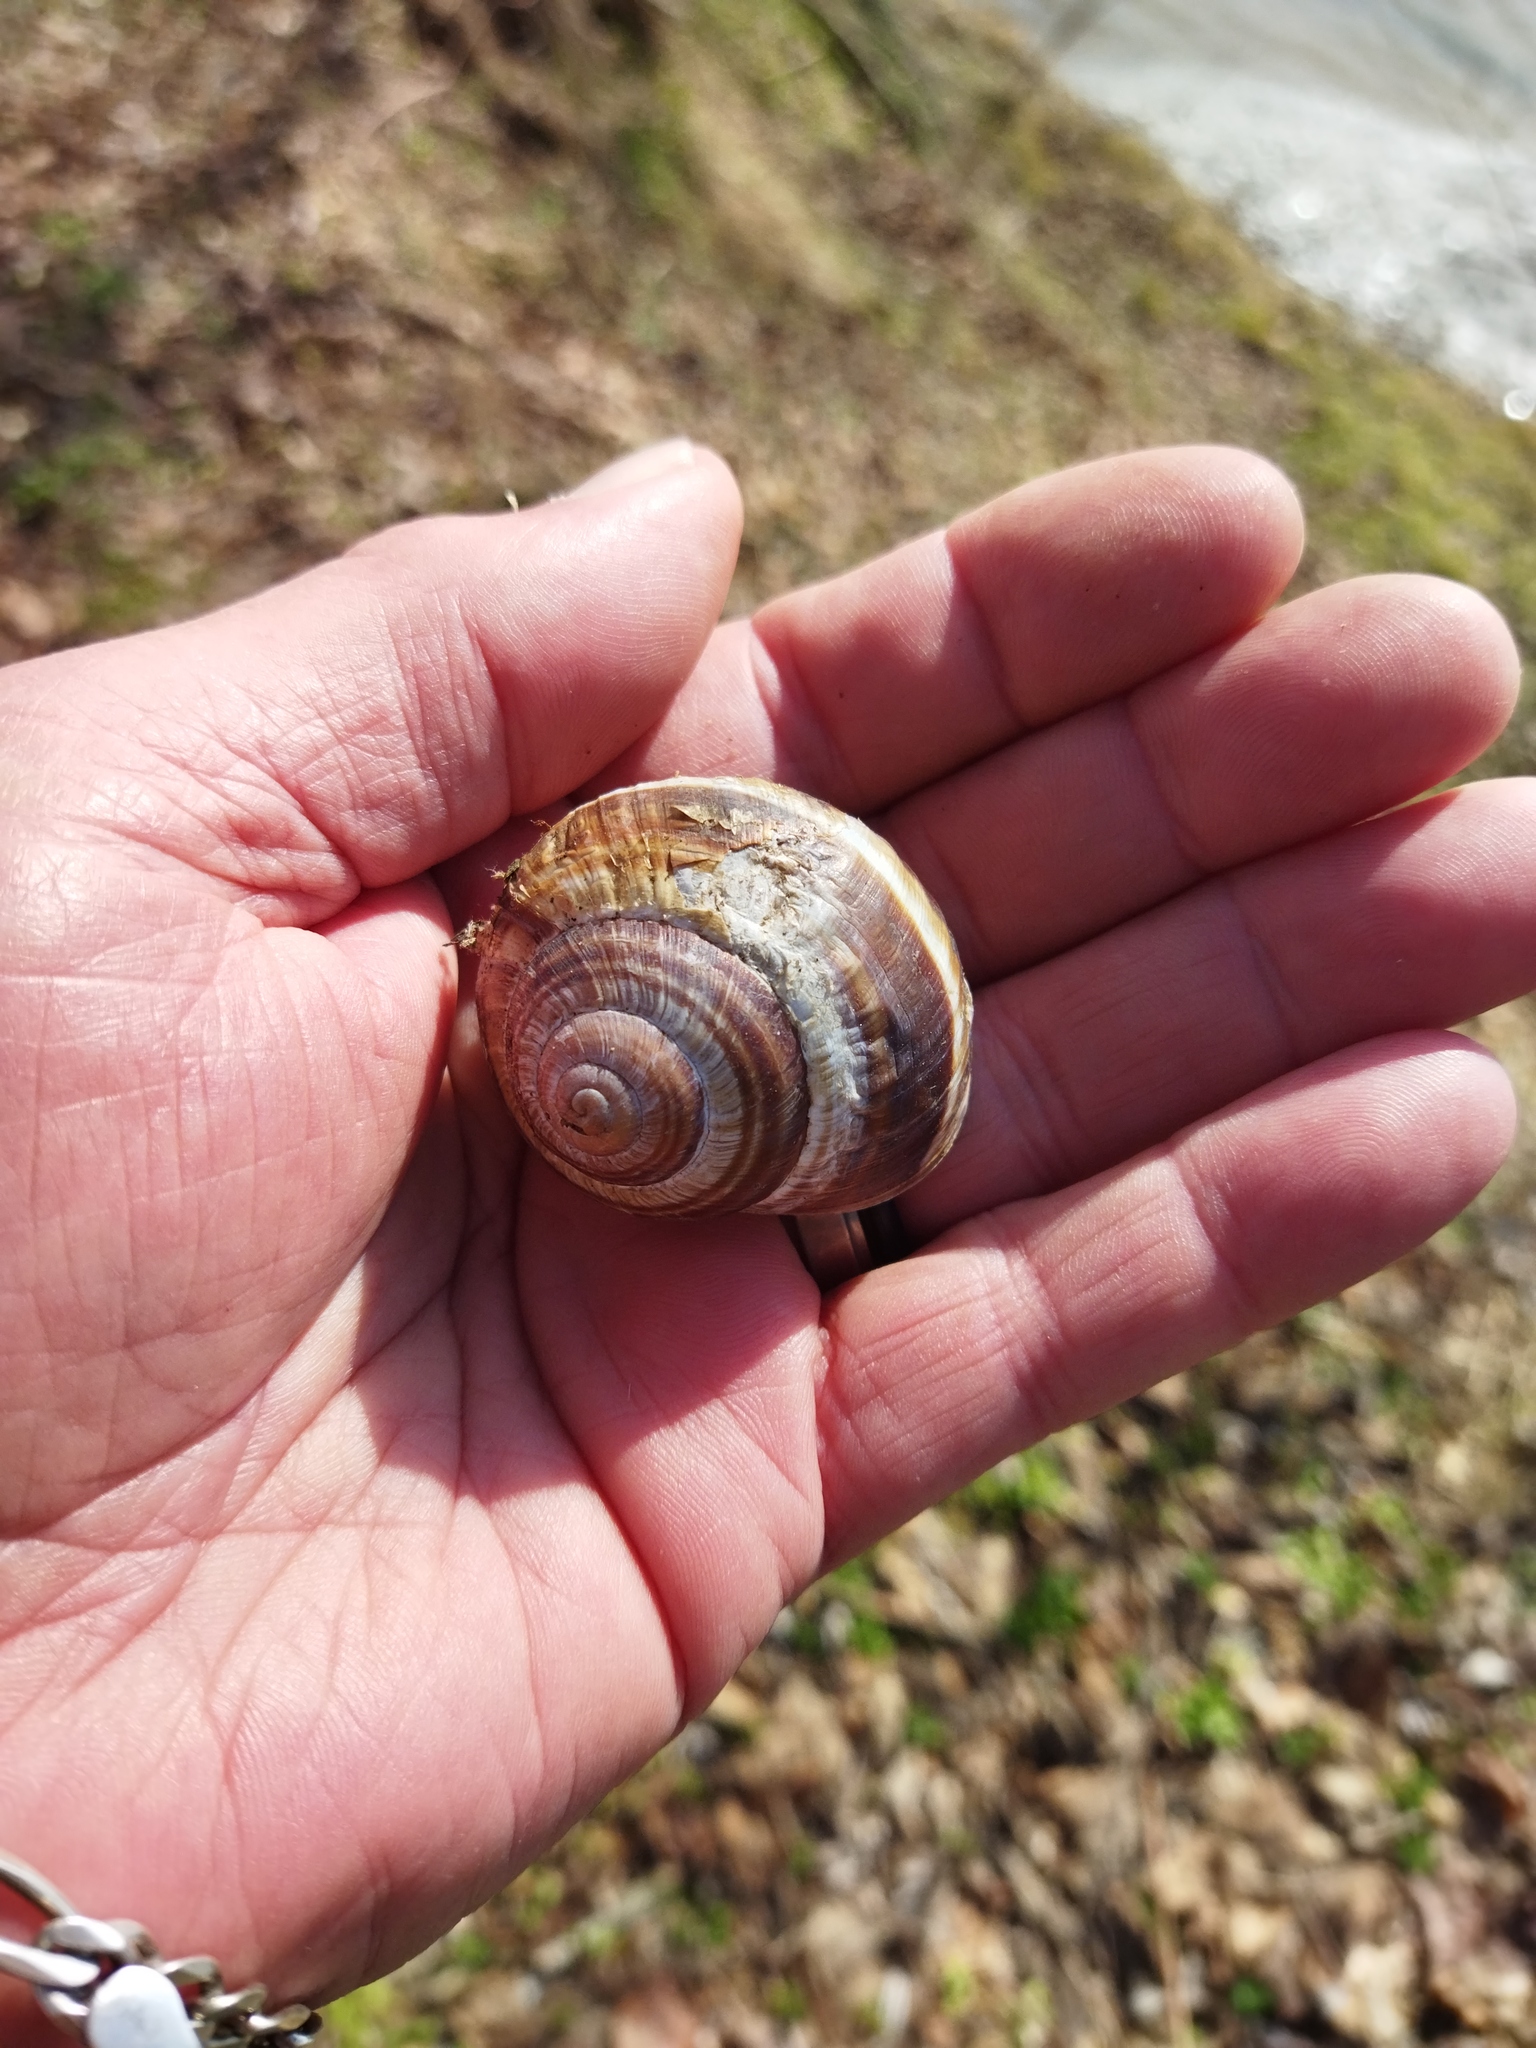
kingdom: Animalia
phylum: Mollusca
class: Gastropoda
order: Stylommatophora
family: Helicidae
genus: Helix
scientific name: Helix lucorum
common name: Turkish snail
